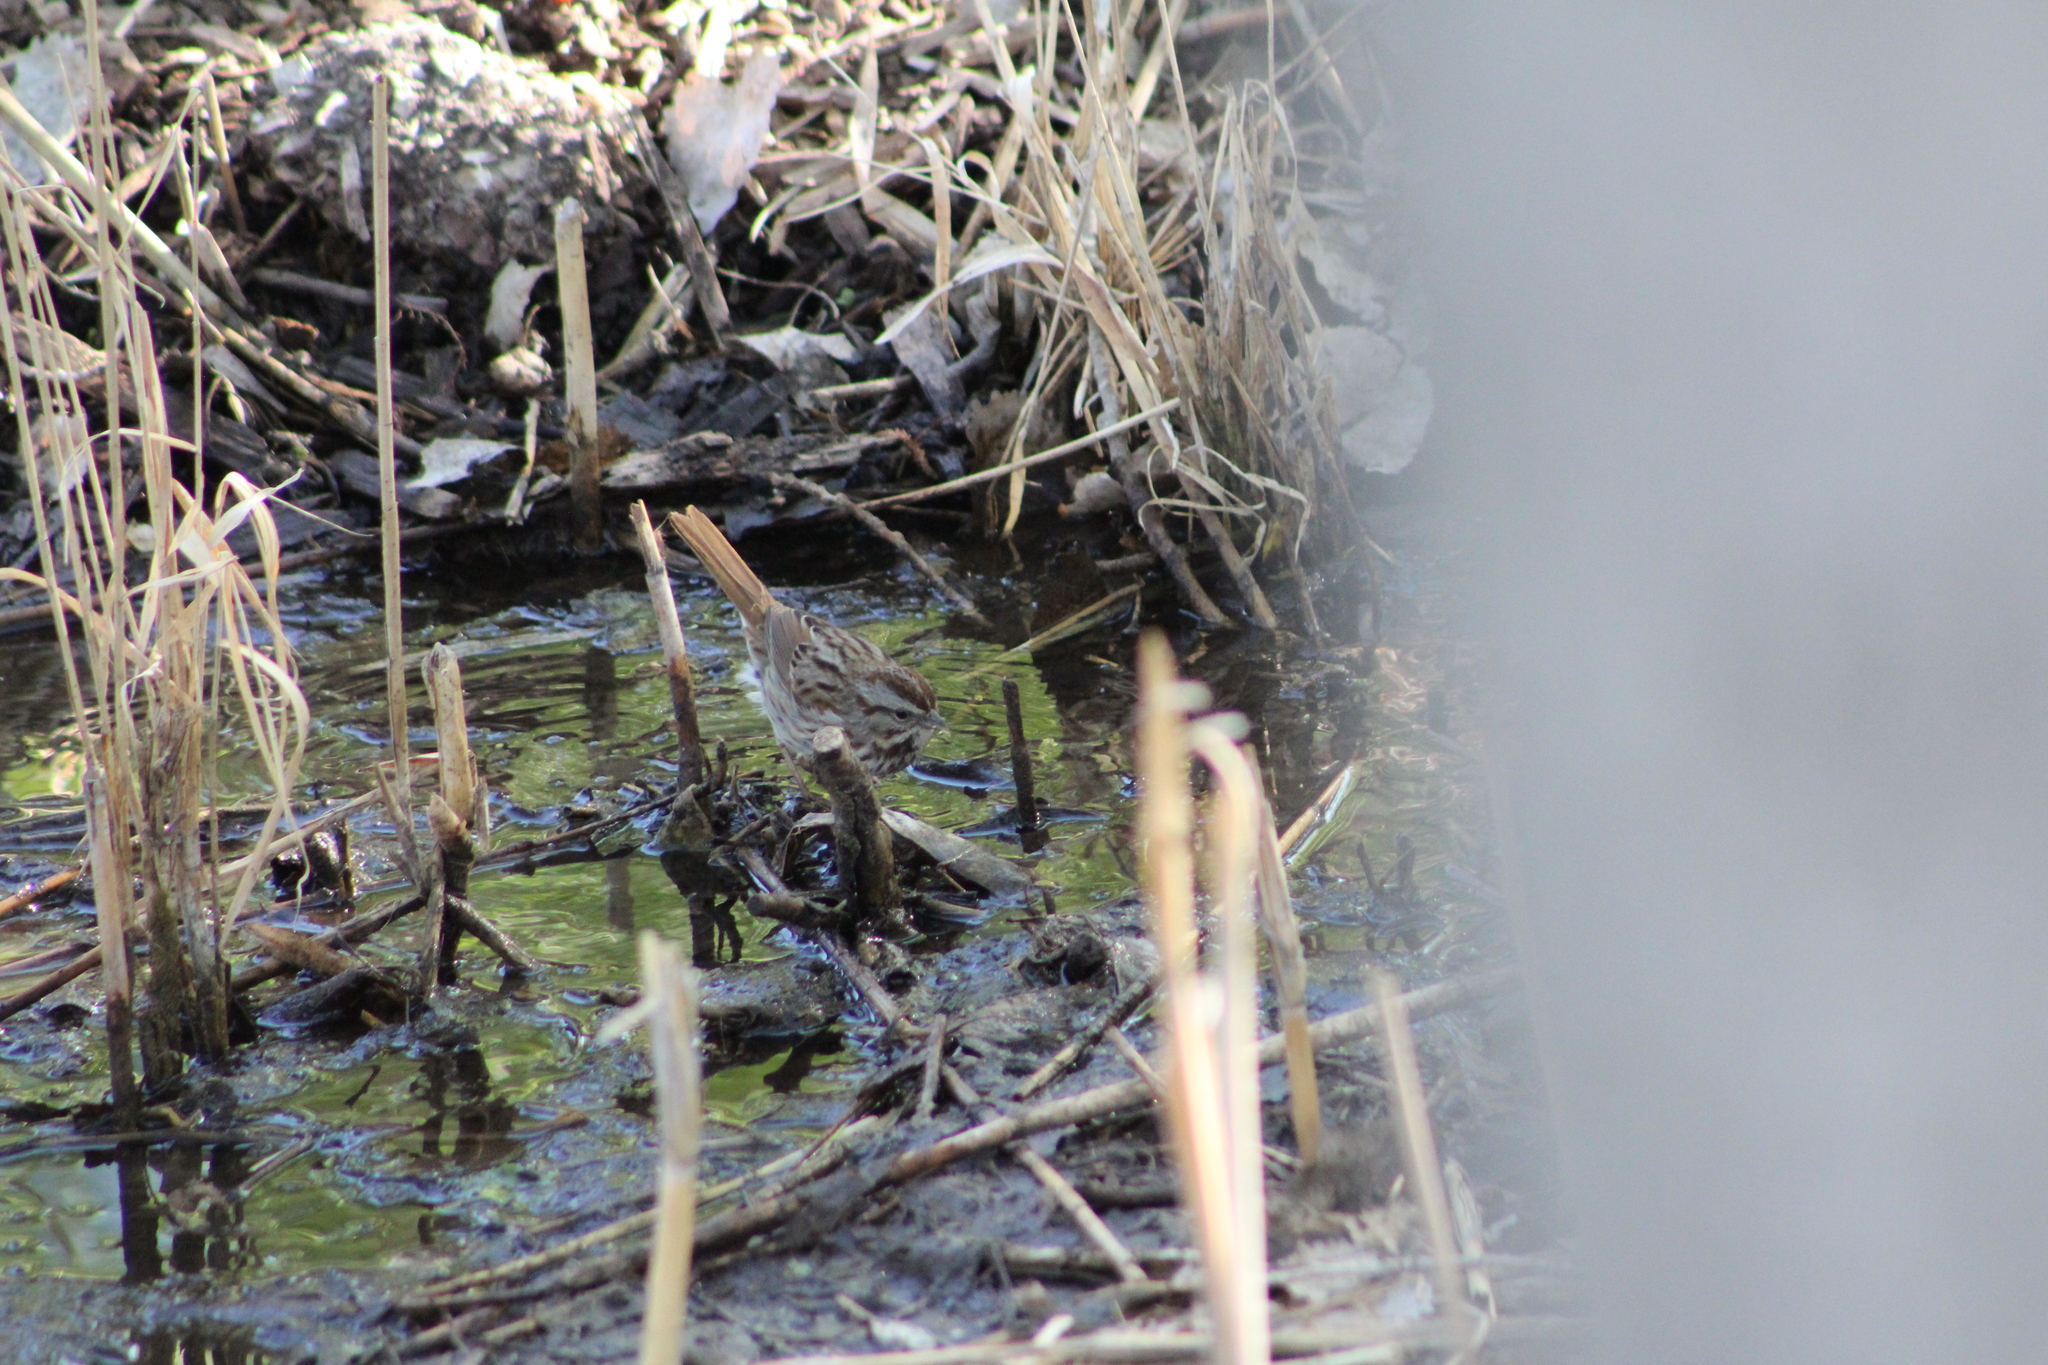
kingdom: Animalia
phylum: Chordata
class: Aves
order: Passeriformes
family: Passerellidae
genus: Melospiza
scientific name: Melospiza melodia
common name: Song sparrow
